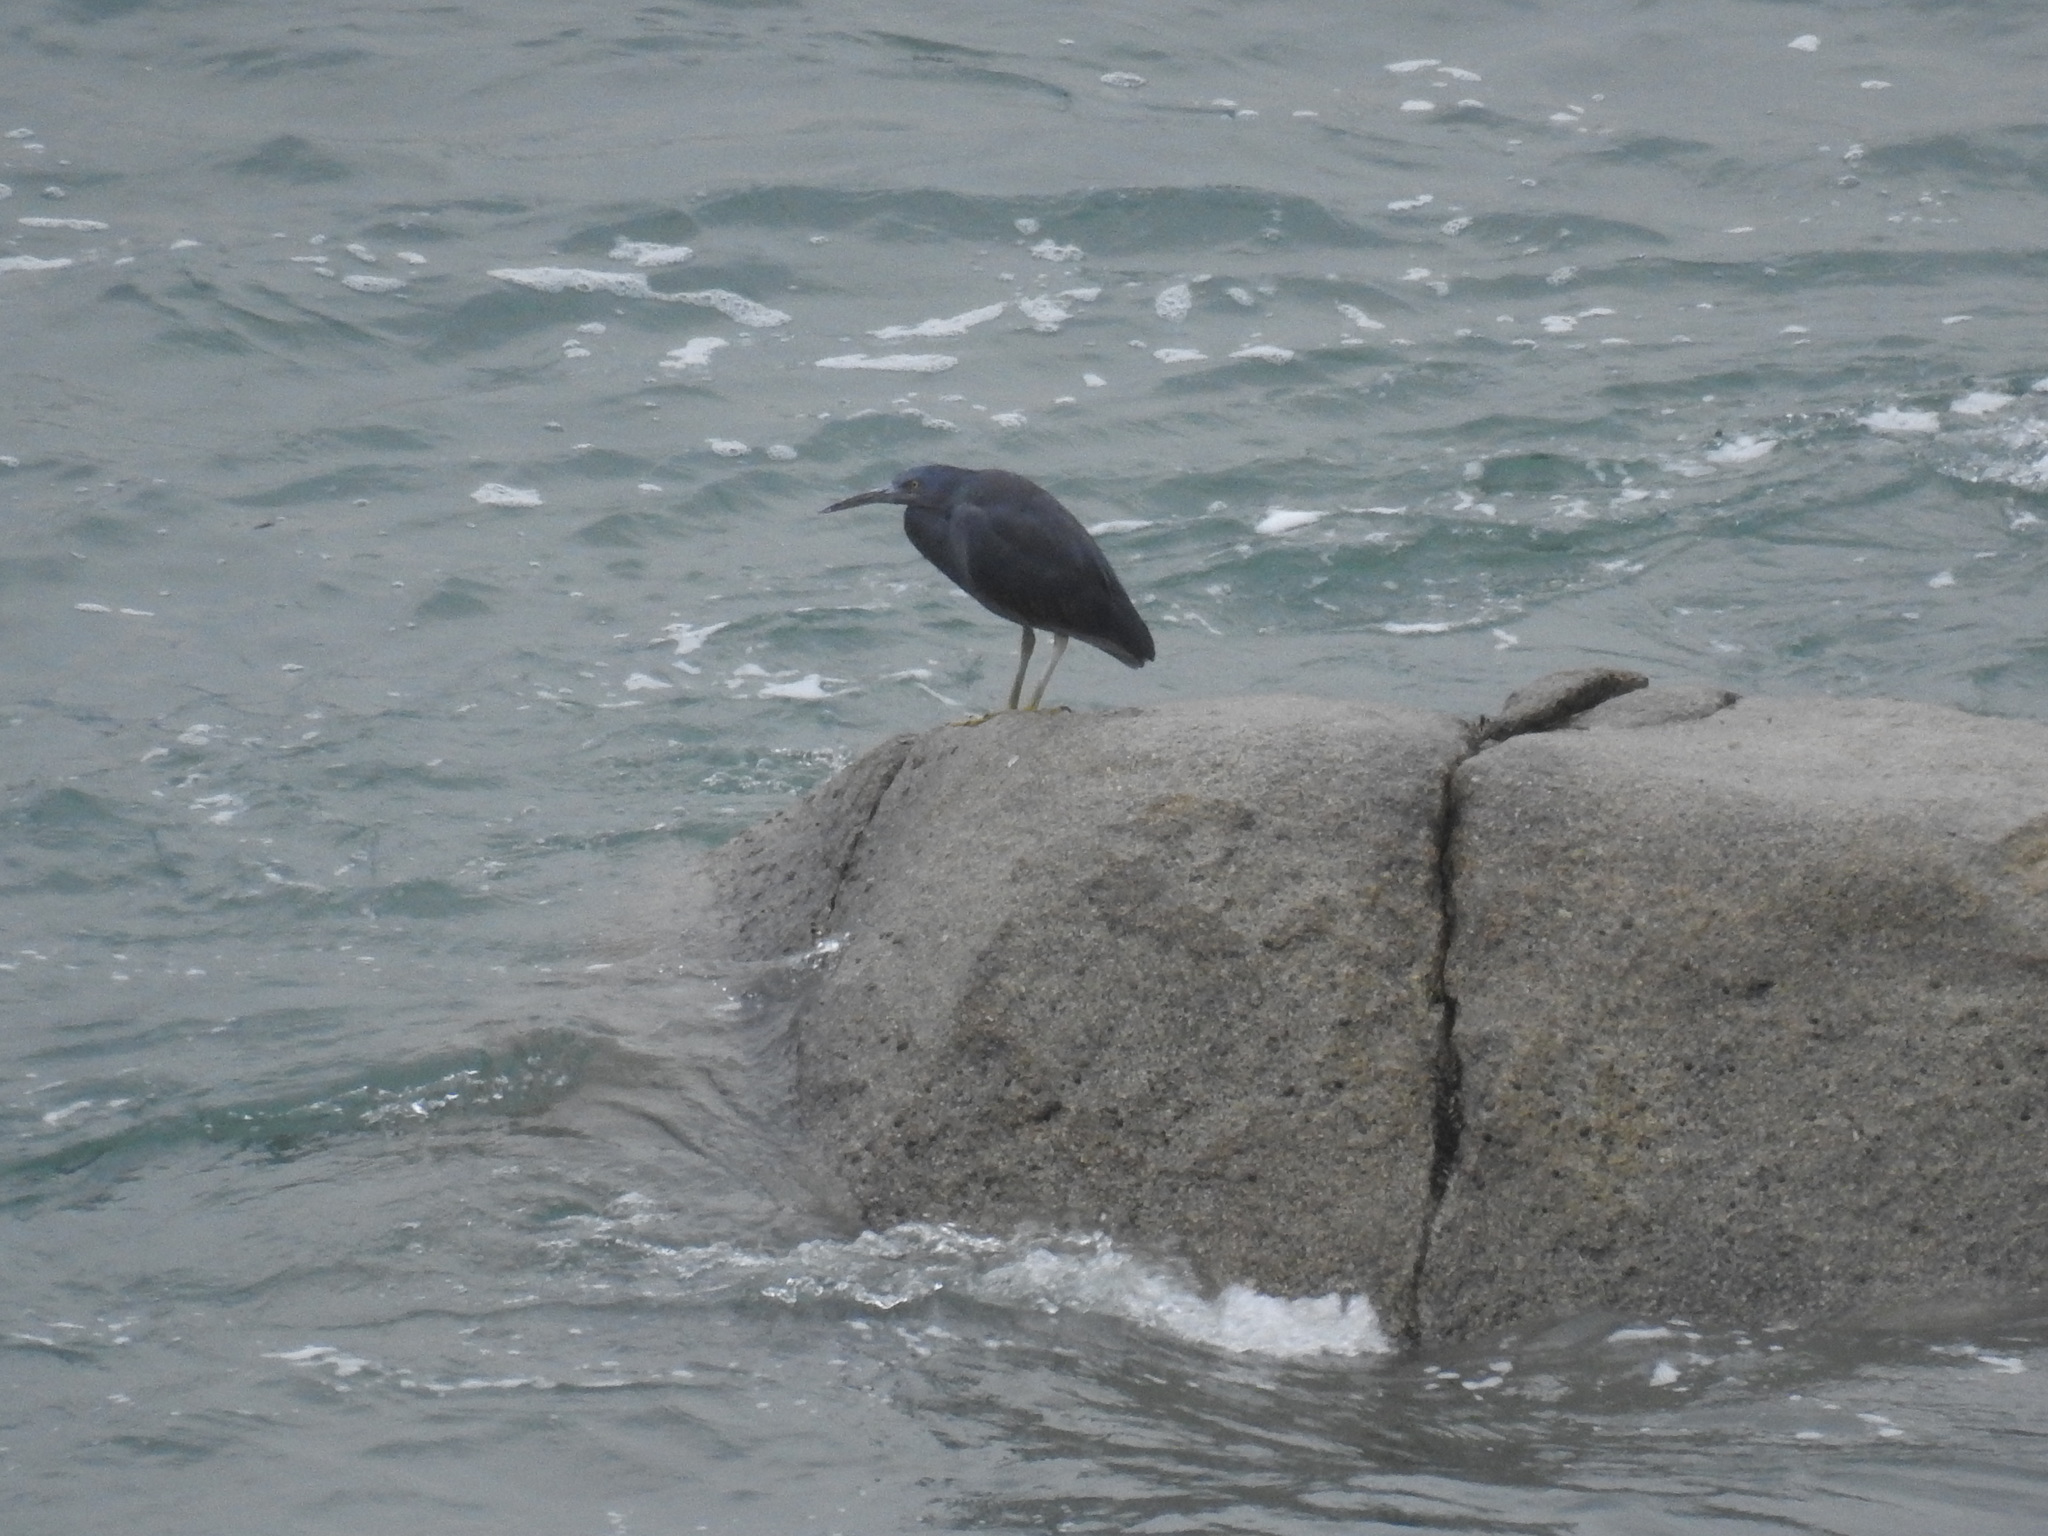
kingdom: Animalia
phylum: Chordata
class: Aves
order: Pelecaniformes
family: Ardeidae
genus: Egretta
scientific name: Egretta sacra
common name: Pacific reef heron
